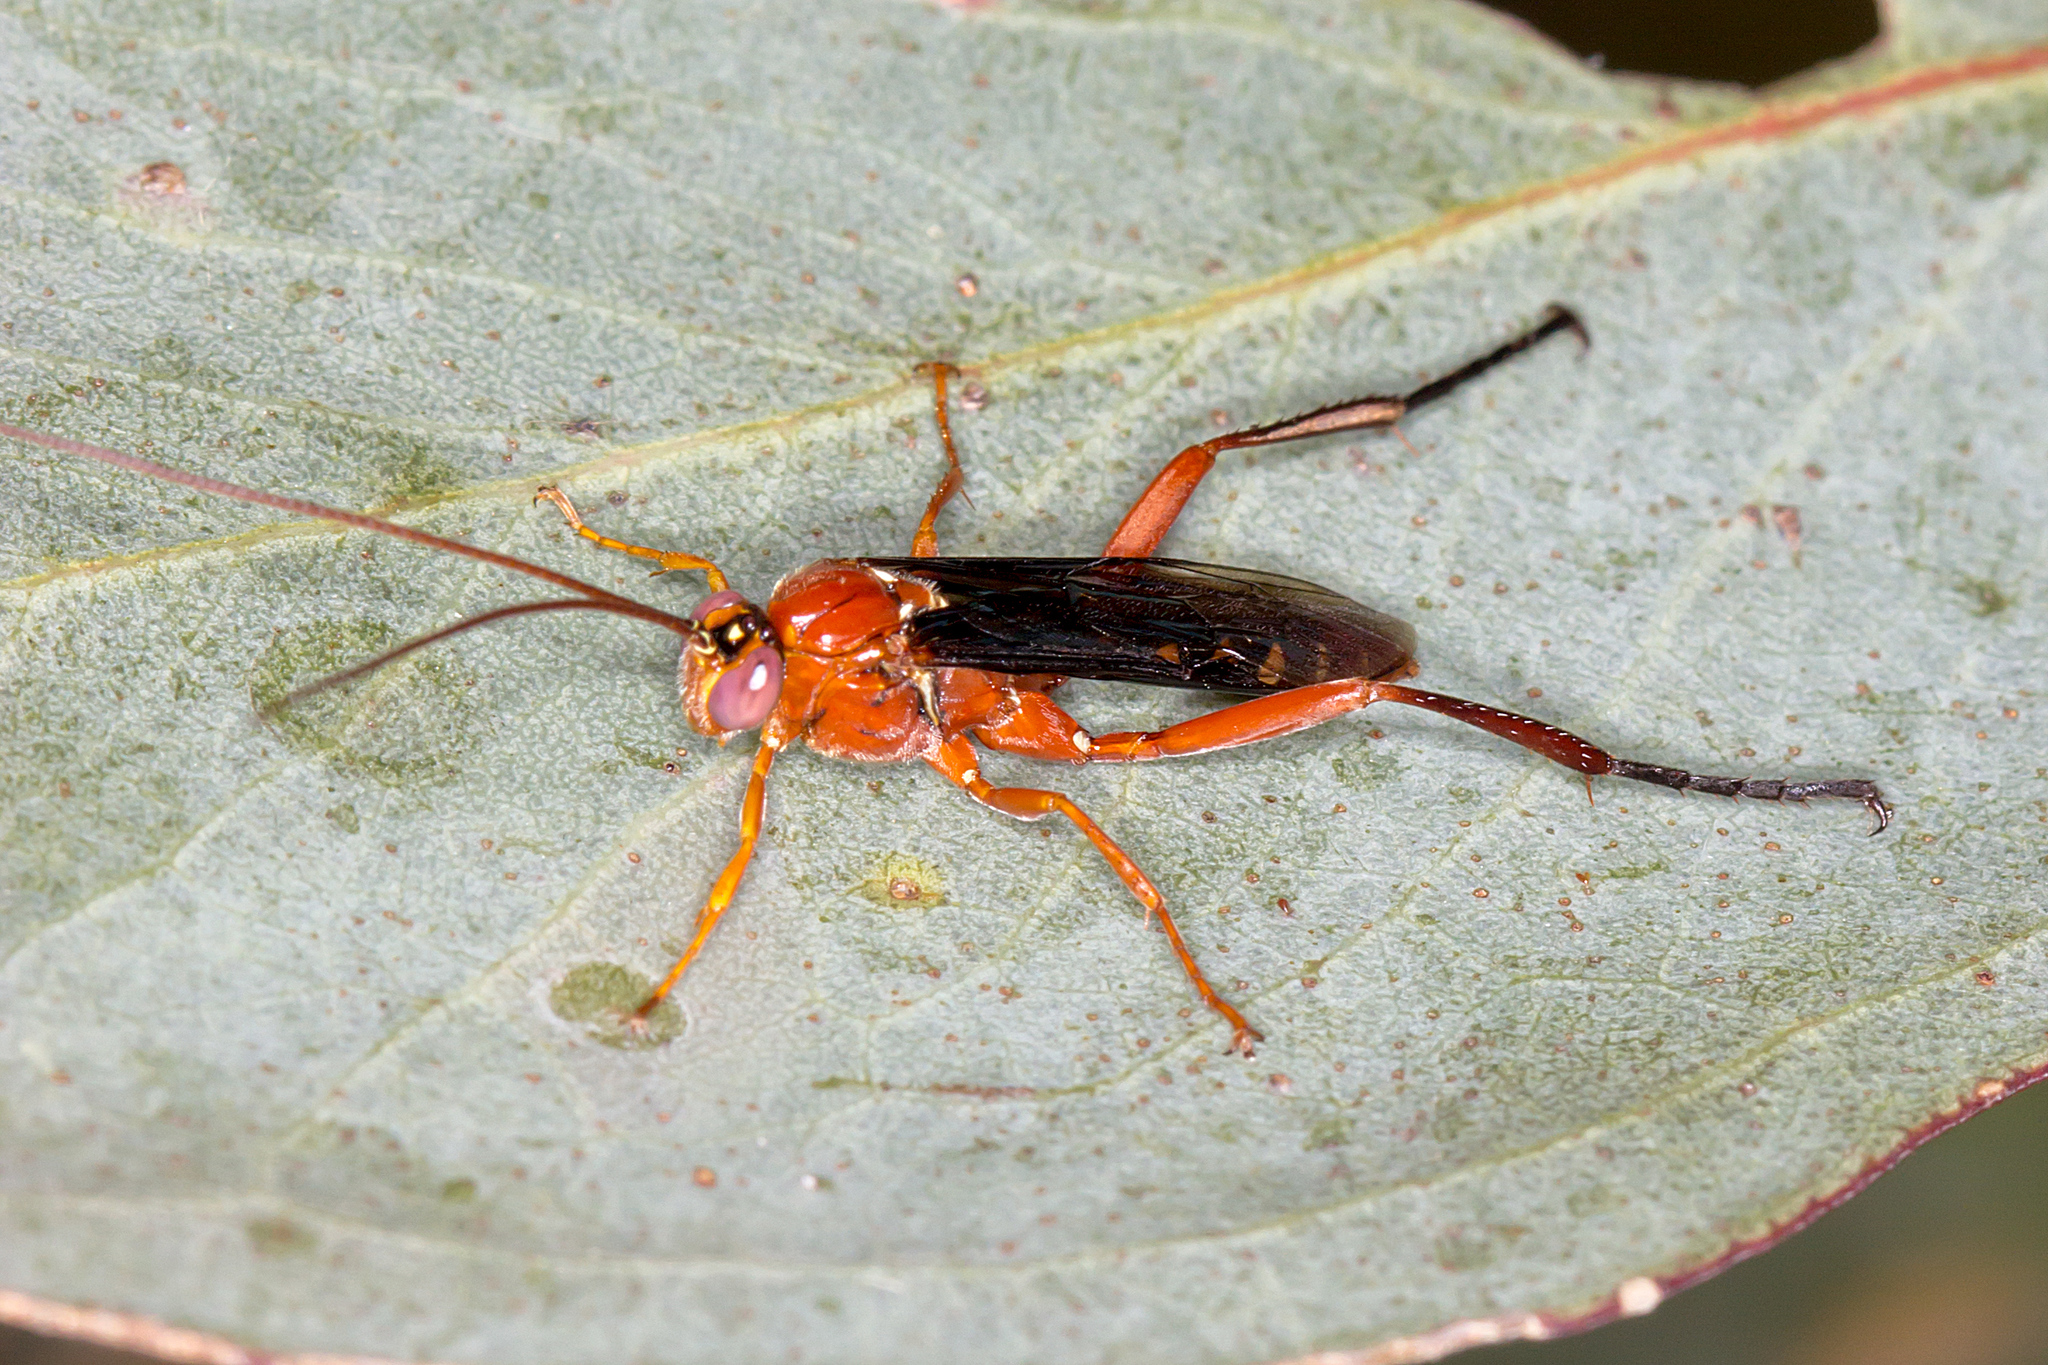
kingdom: Animalia
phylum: Arthropoda
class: Insecta
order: Hymenoptera
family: Ichneumonidae
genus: Lissopimpla
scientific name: Lissopimpla excelsa
